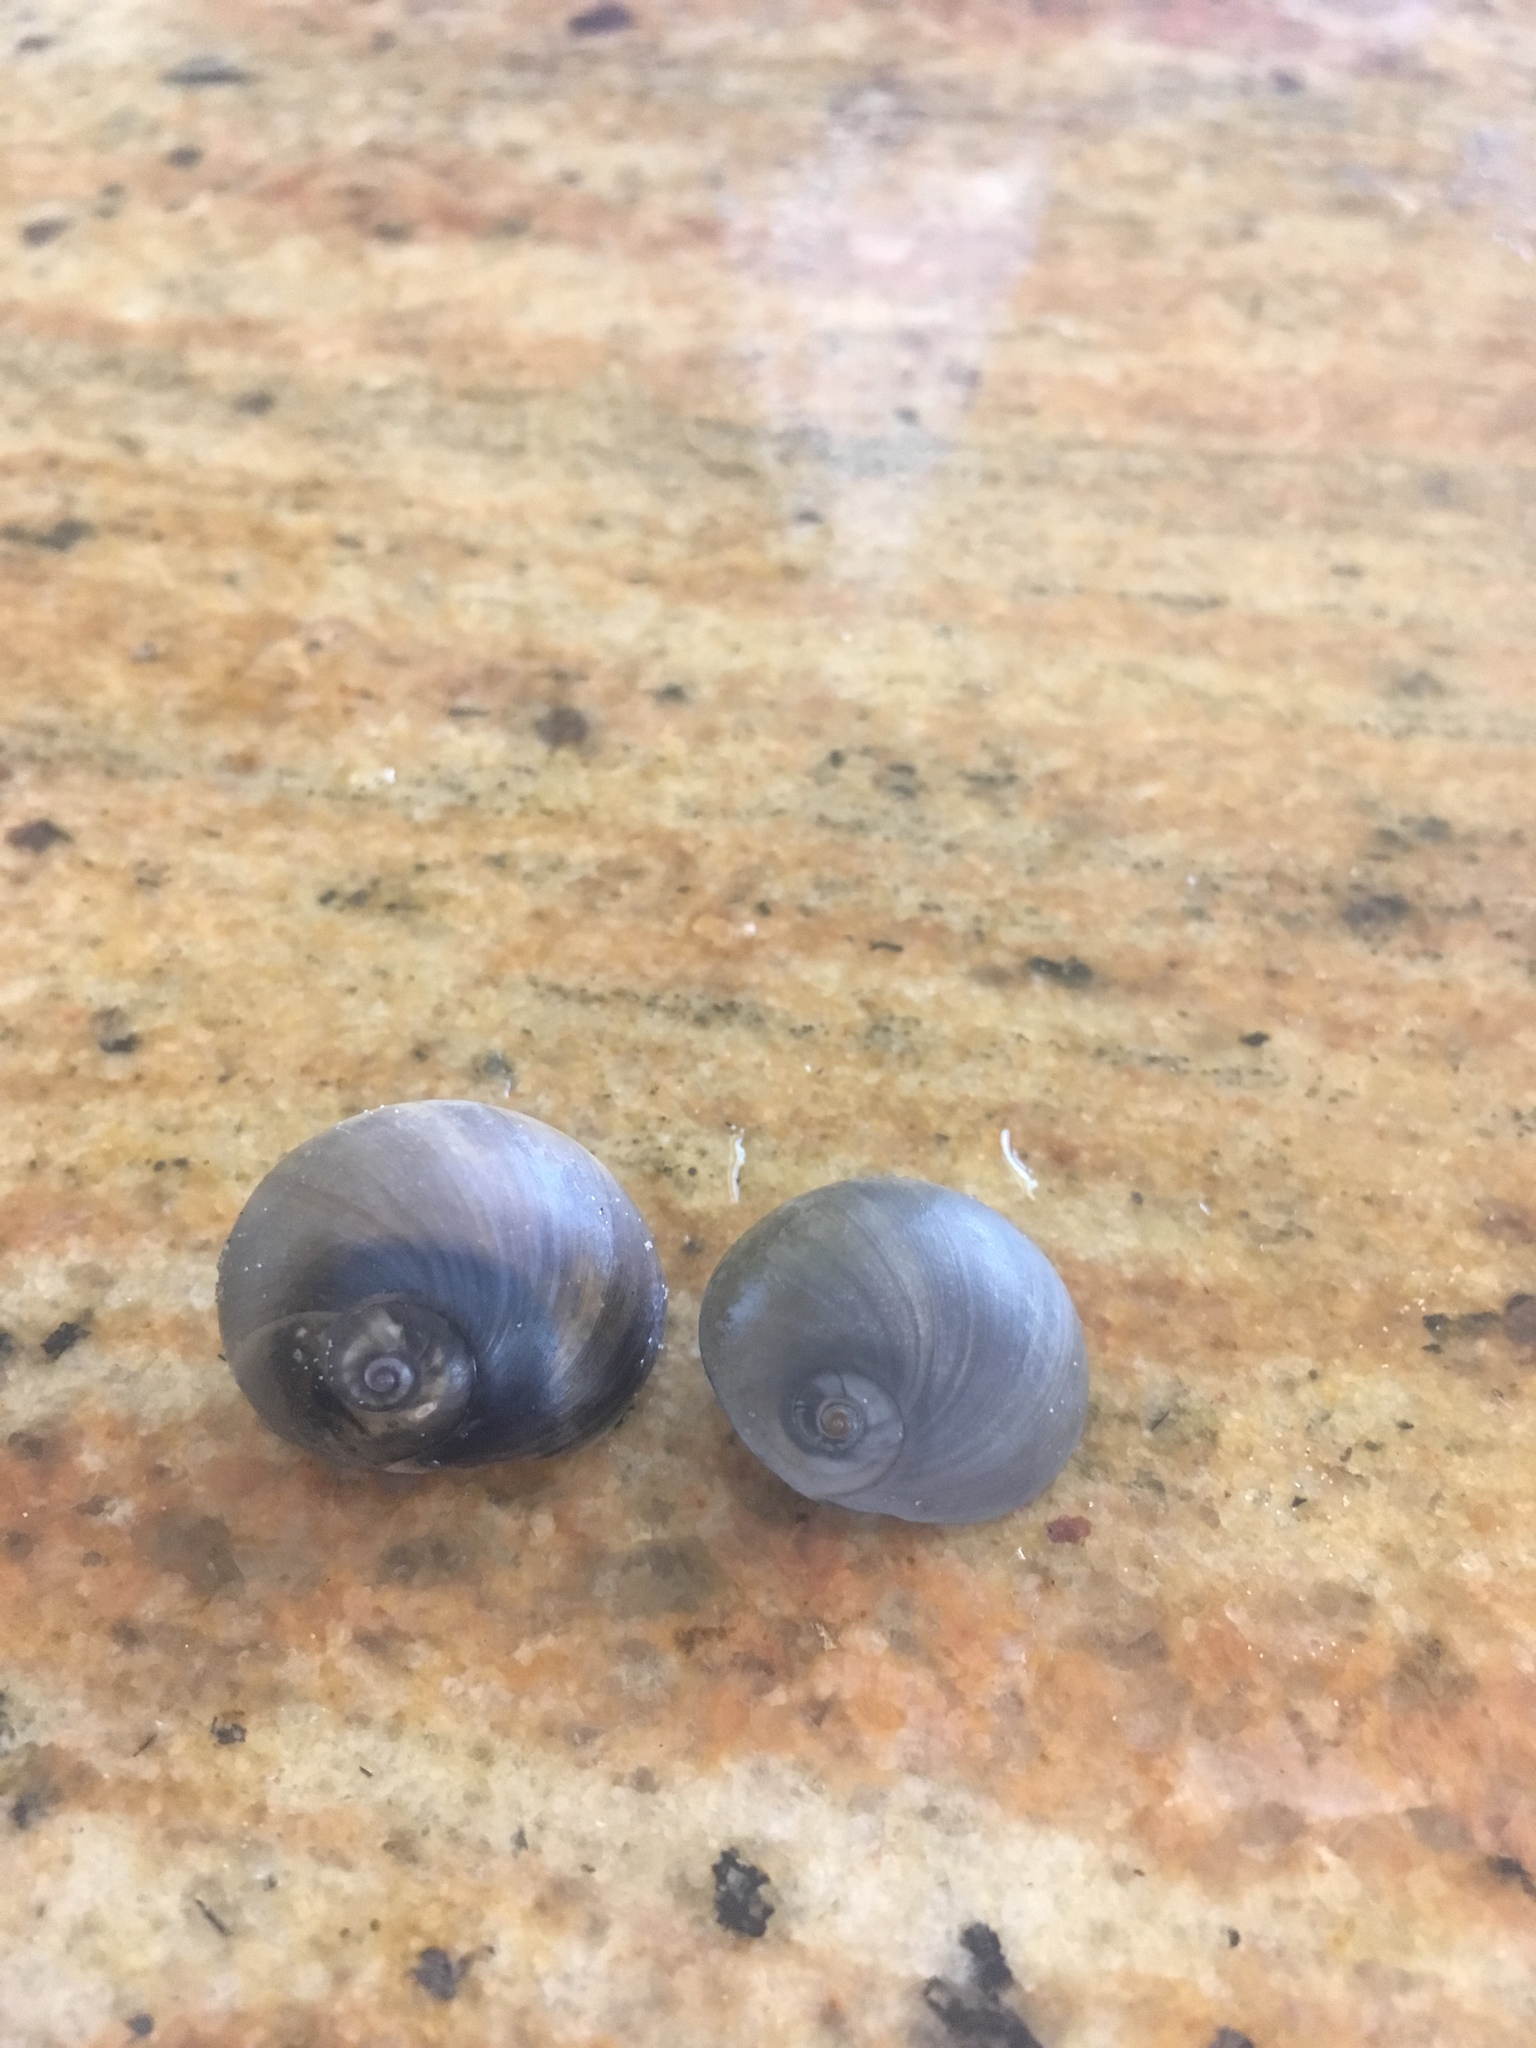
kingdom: Animalia
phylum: Mollusca
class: Gastropoda
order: Littorinimorpha
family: Naticidae
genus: Neverita
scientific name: Neverita duplicata
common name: Lobed moonsnail
